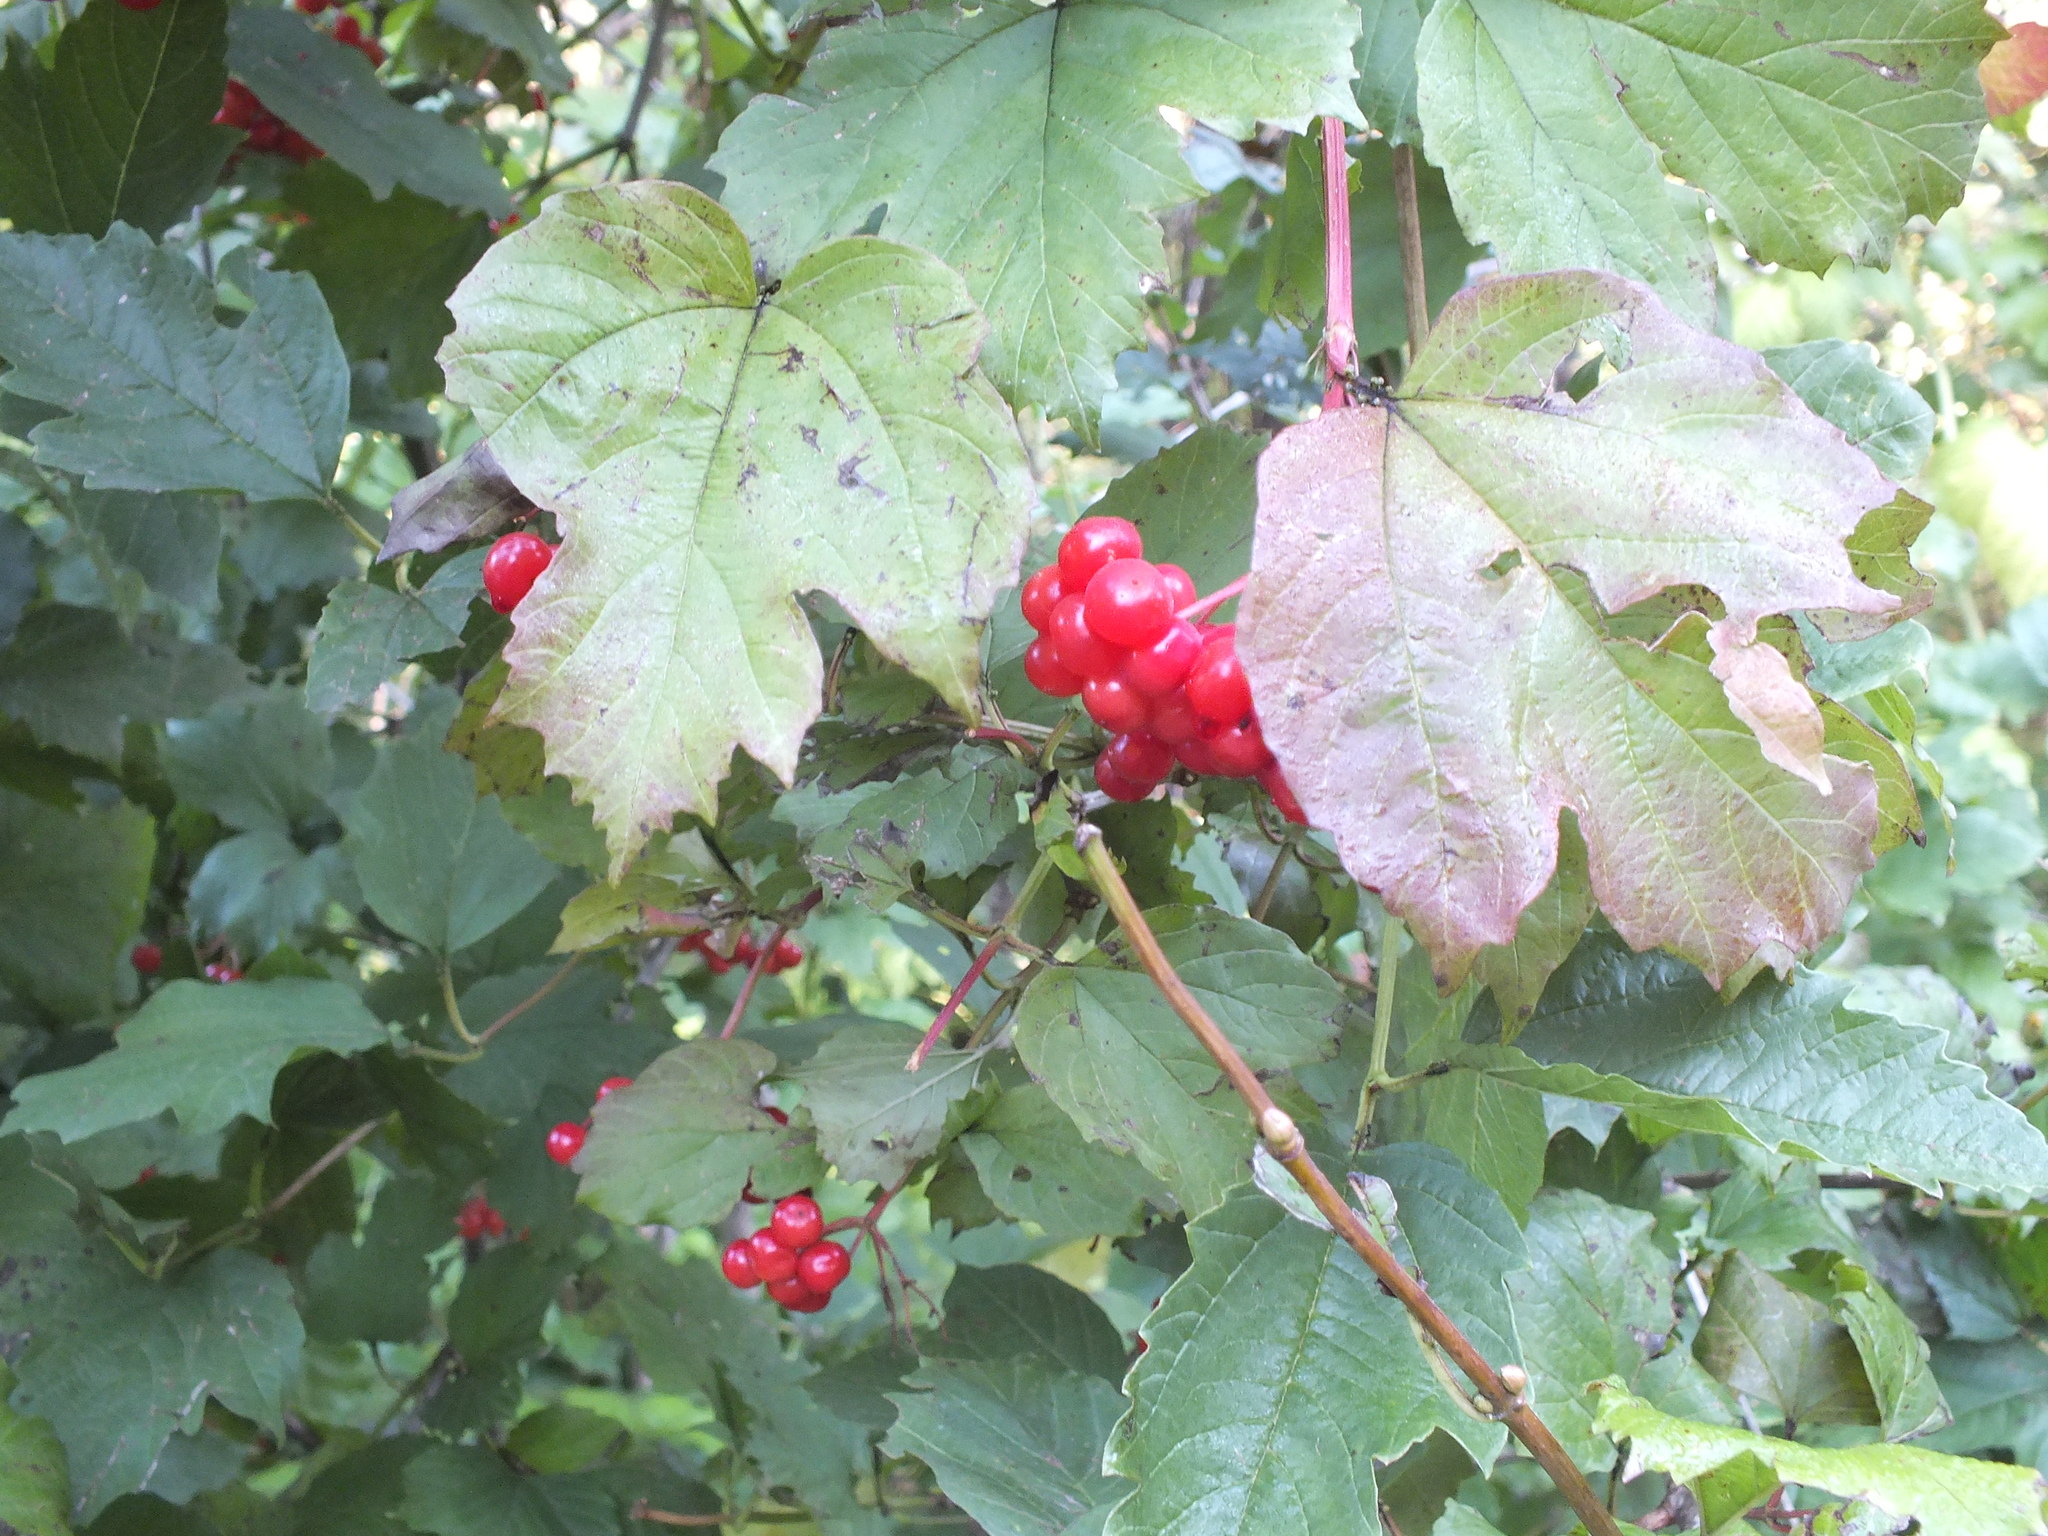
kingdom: Plantae
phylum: Tracheophyta
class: Magnoliopsida
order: Dipsacales
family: Viburnaceae
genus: Viburnum
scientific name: Viburnum opulus
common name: Guelder-rose
